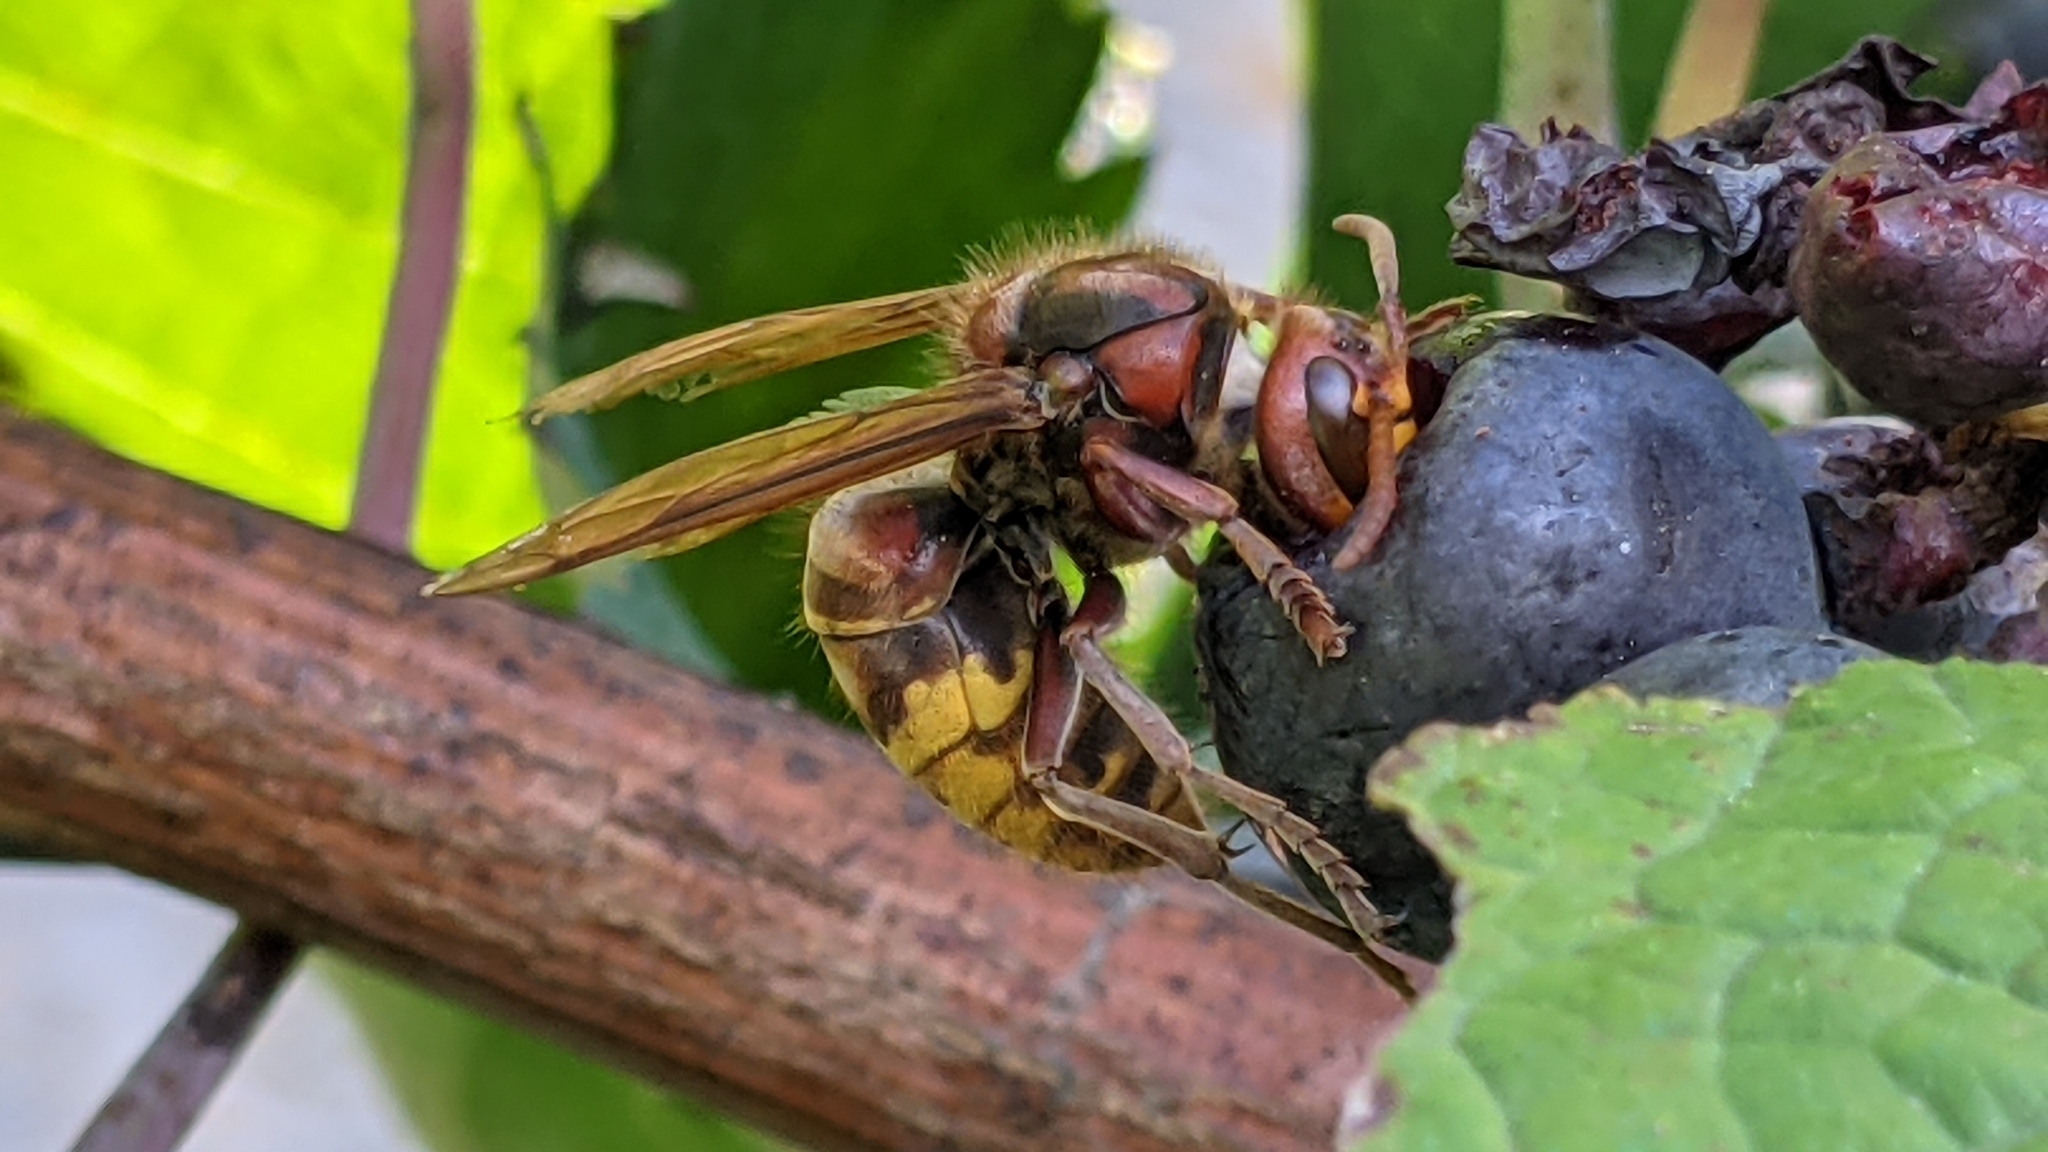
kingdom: Animalia
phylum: Arthropoda
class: Insecta
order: Hymenoptera
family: Vespidae
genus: Vespa
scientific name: Vespa crabro
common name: Hornet
